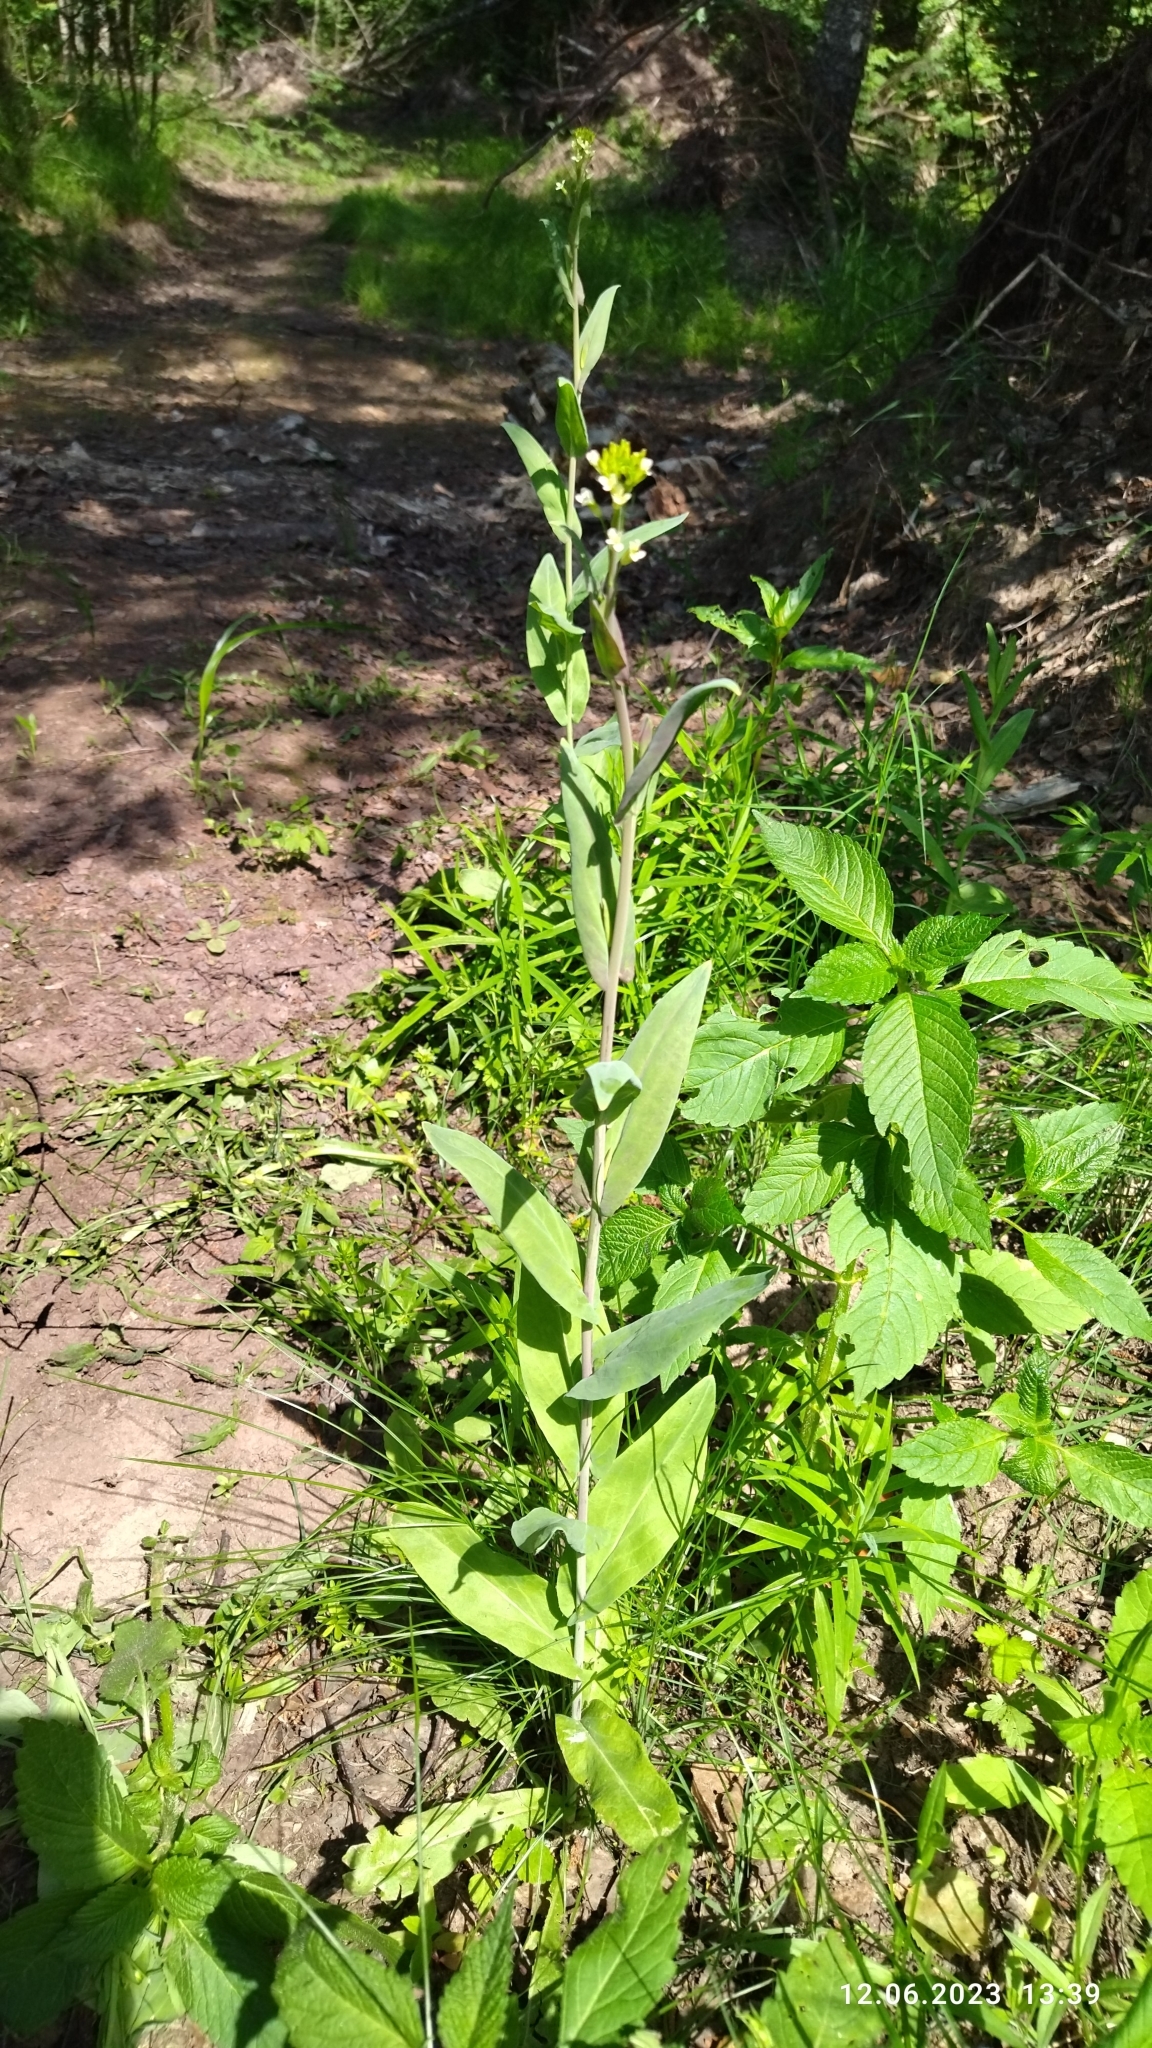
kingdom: Plantae
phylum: Tracheophyta
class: Magnoliopsida
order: Brassicales
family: Brassicaceae
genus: Turritis
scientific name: Turritis glabra
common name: Tower rockcress
